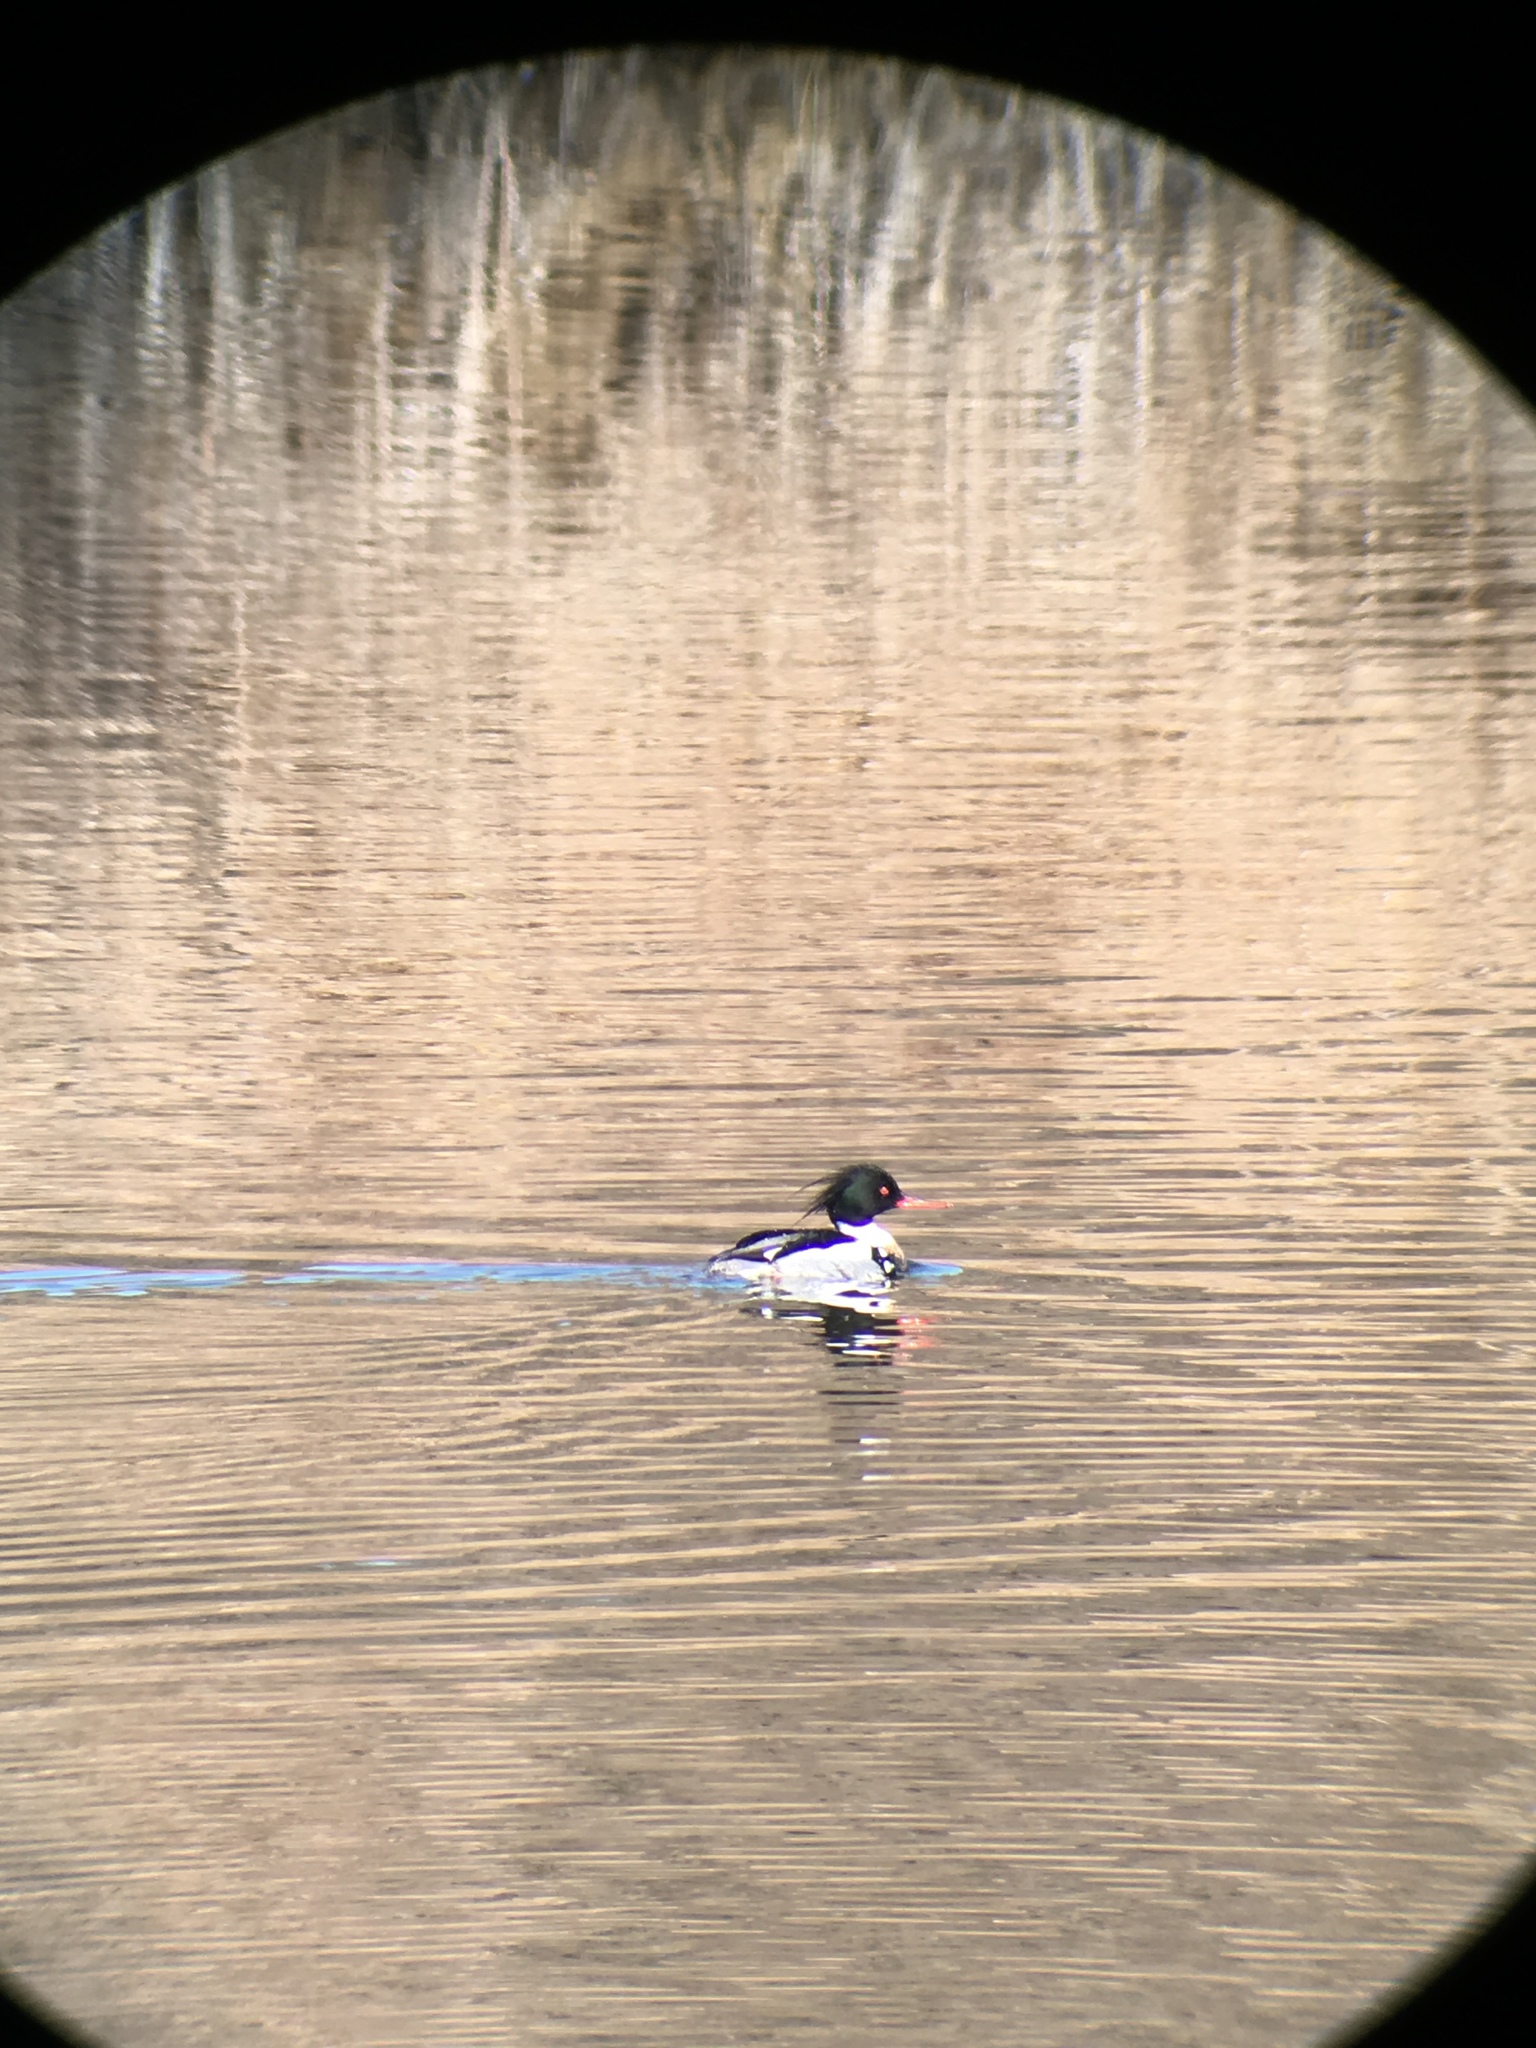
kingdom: Animalia
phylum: Chordata
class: Aves
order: Anseriformes
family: Anatidae
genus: Mergus
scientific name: Mergus serrator
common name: Red-breasted merganser
